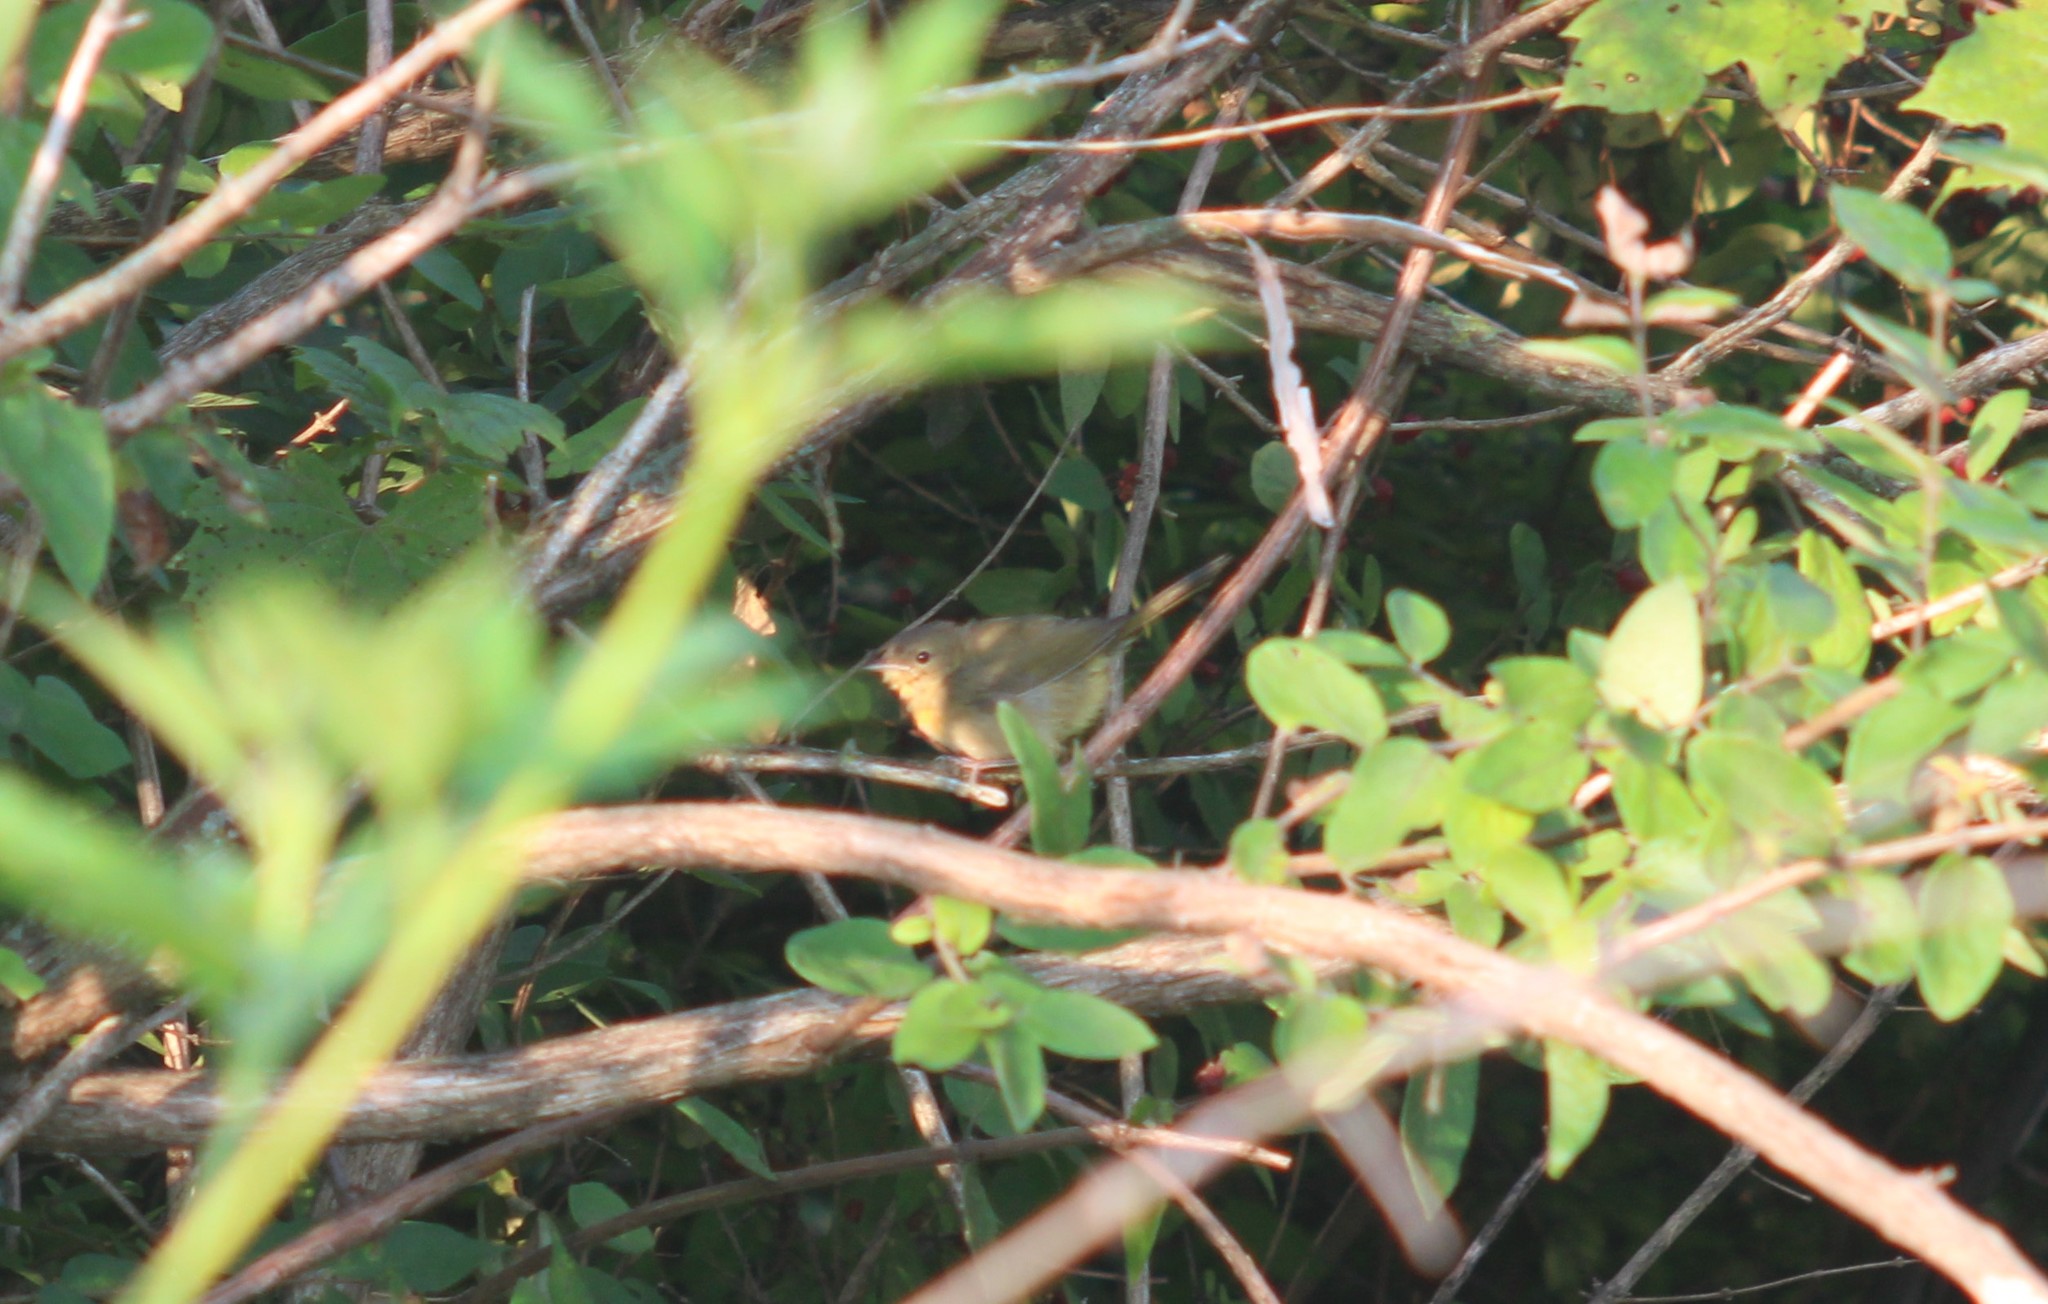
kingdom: Animalia
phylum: Chordata
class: Aves
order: Passeriformes
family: Parulidae
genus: Geothlypis
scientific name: Geothlypis trichas
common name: Common yellowthroat
